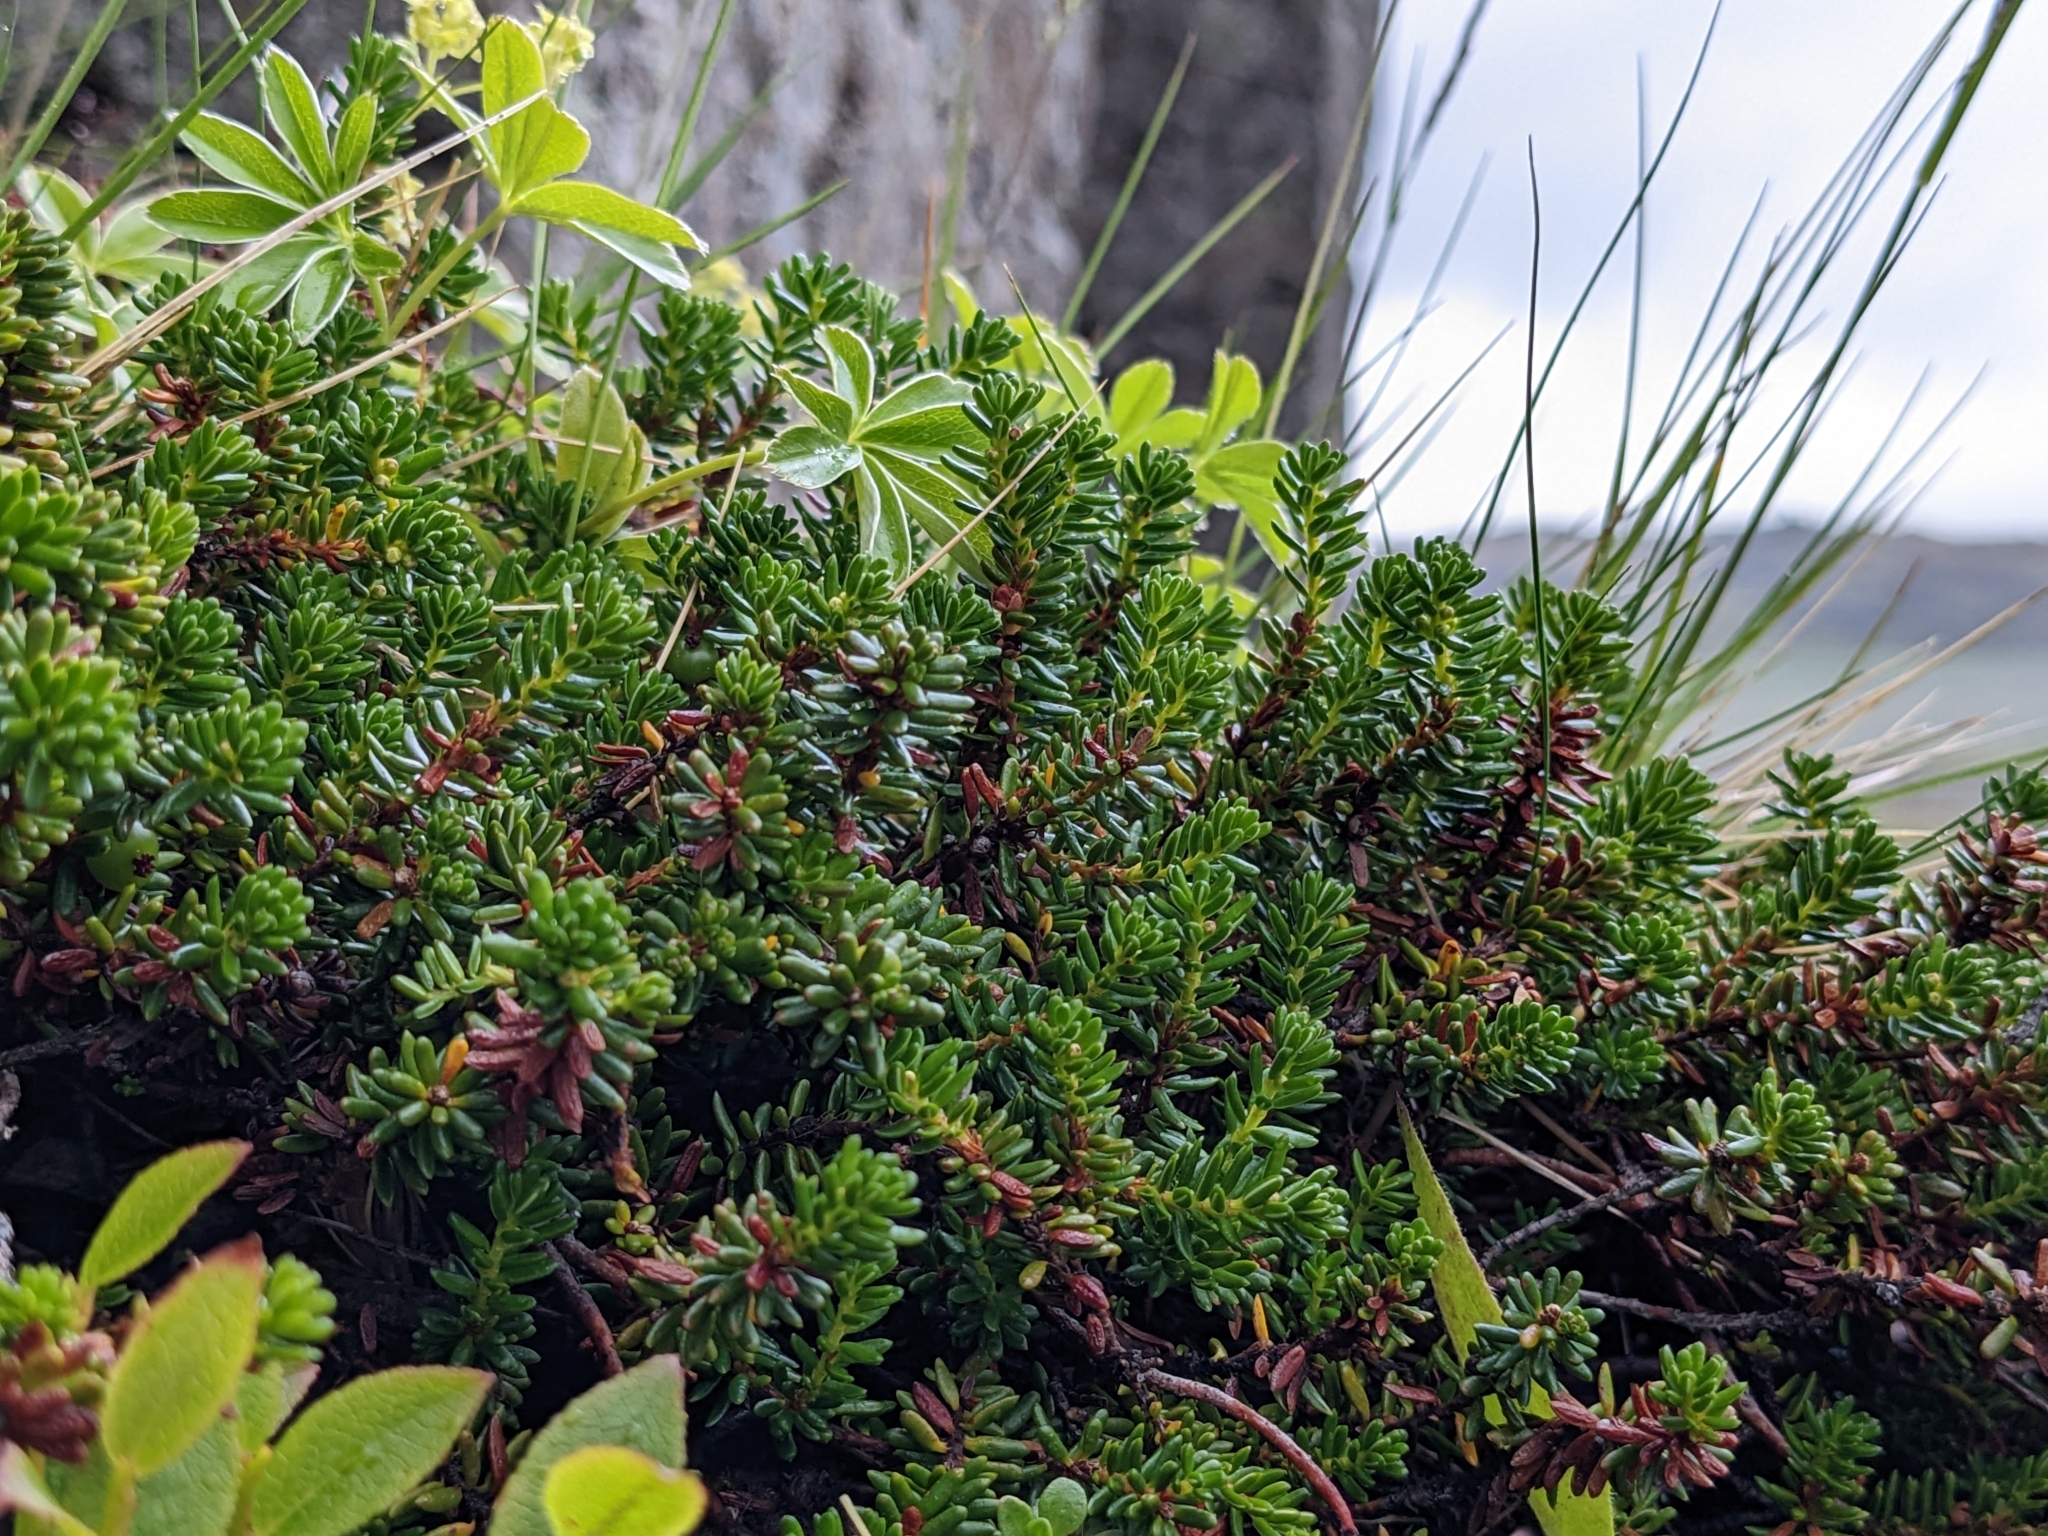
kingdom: Plantae
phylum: Tracheophyta
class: Magnoliopsida
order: Ericales
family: Ericaceae
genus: Empetrum
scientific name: Empetrum nigrum
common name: Black crowberry
